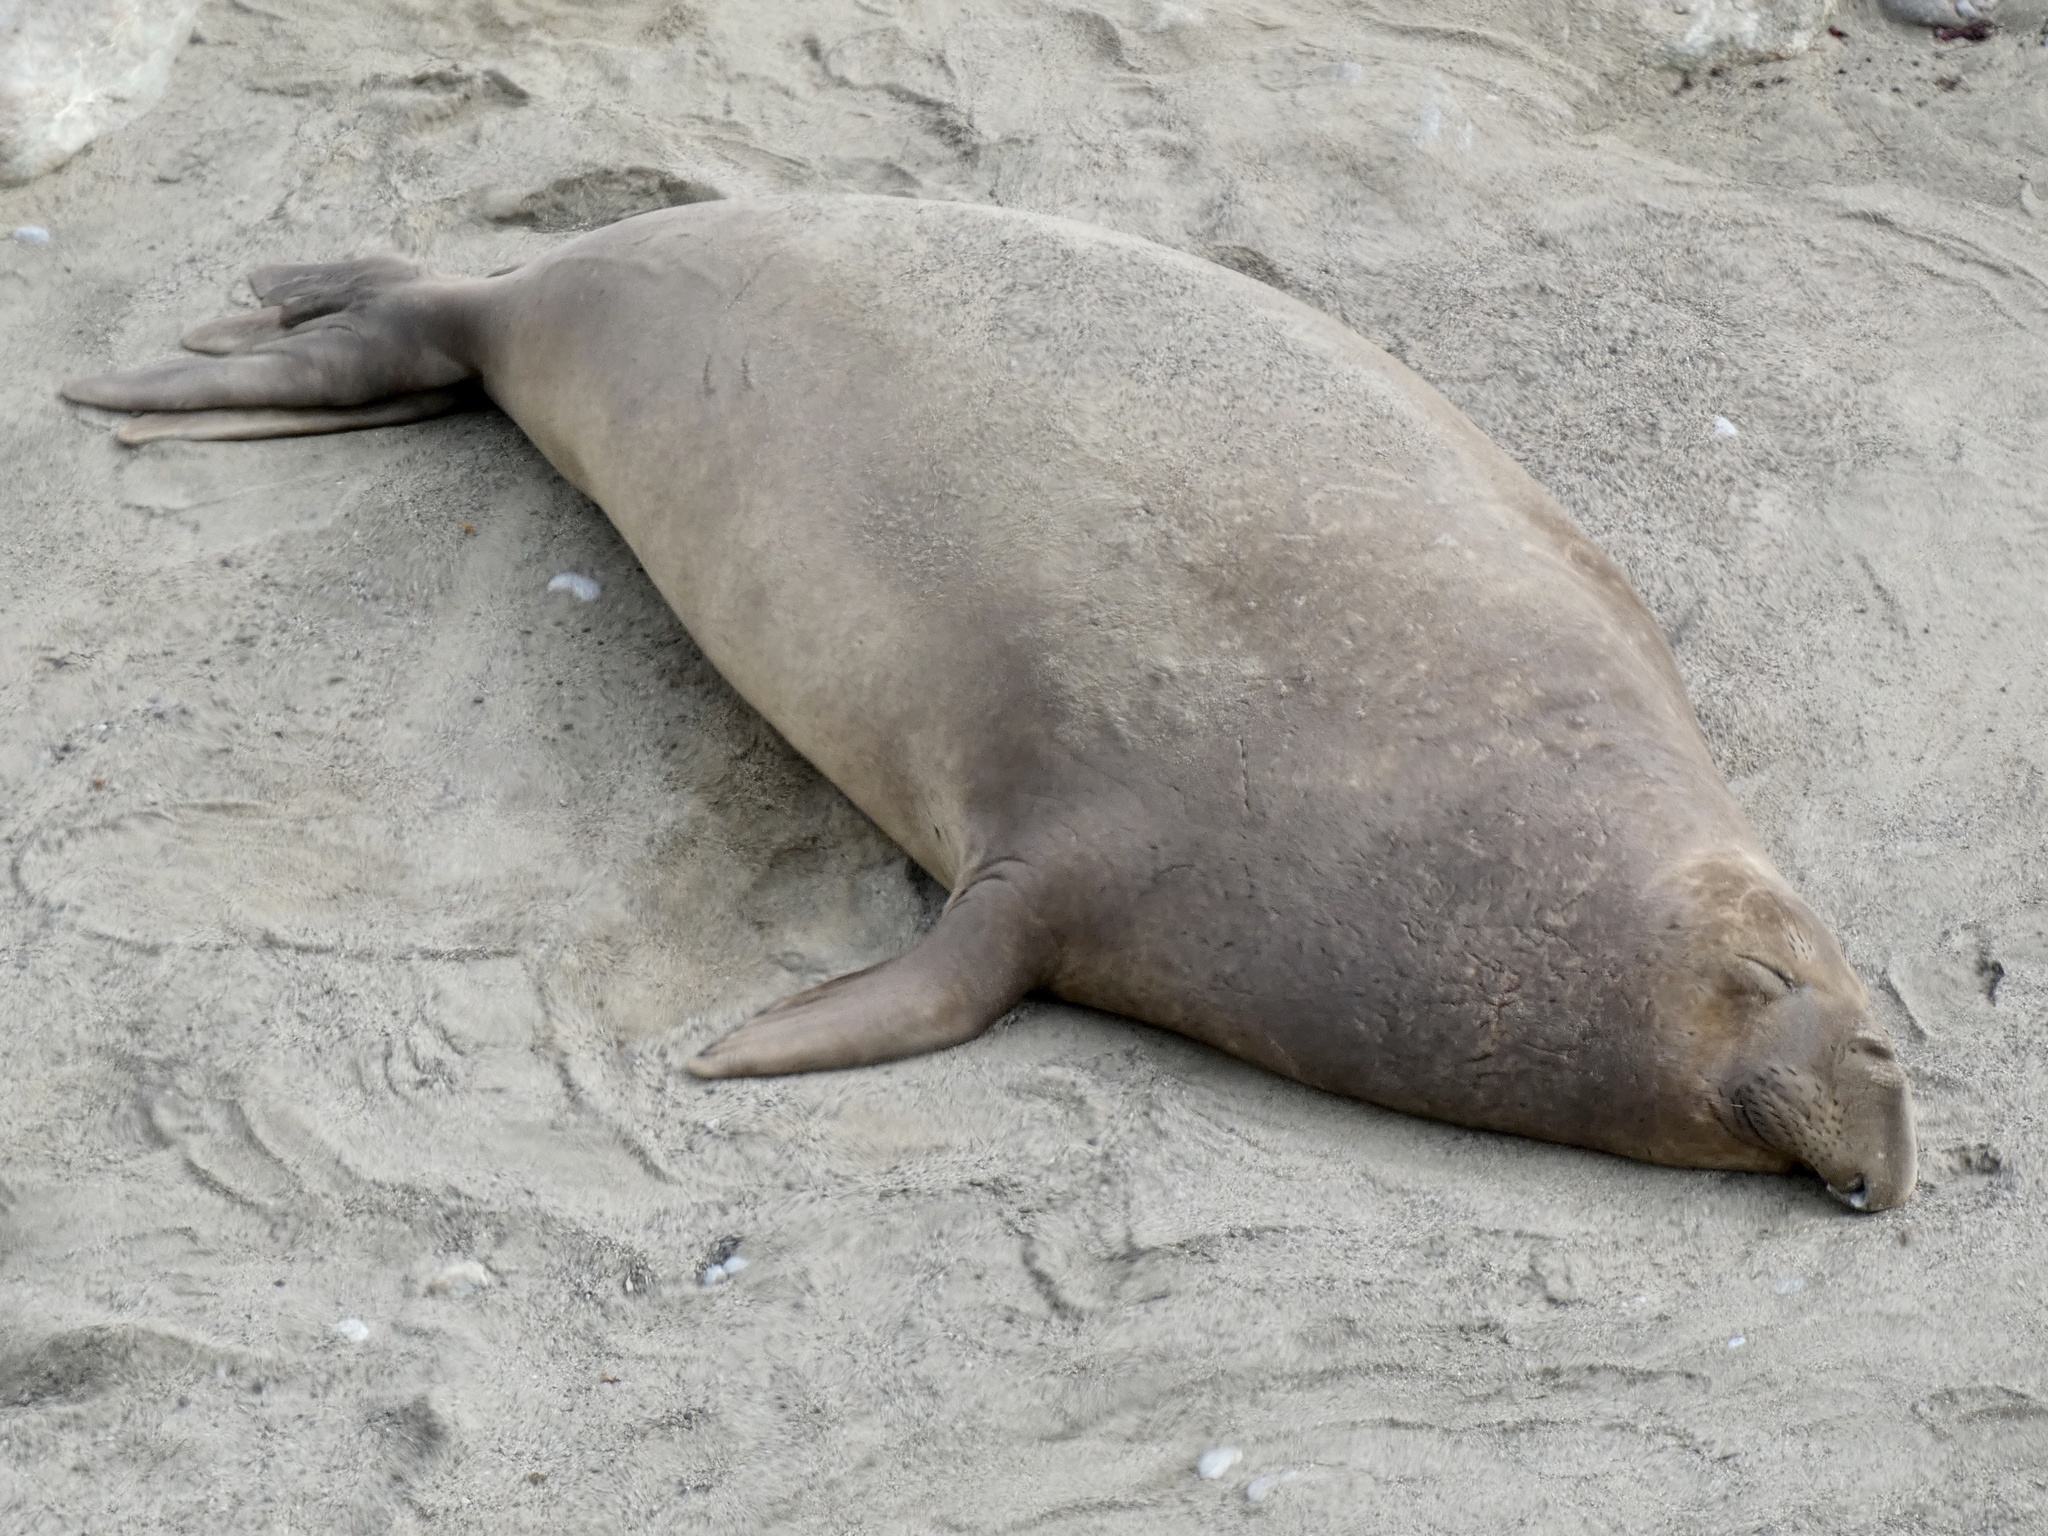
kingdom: Animalia
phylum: Chordata
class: Mammalia
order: Carnivora
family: Phocidae
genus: Mirounga
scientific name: Mirounga angustirostris
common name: Northern elephant seal
